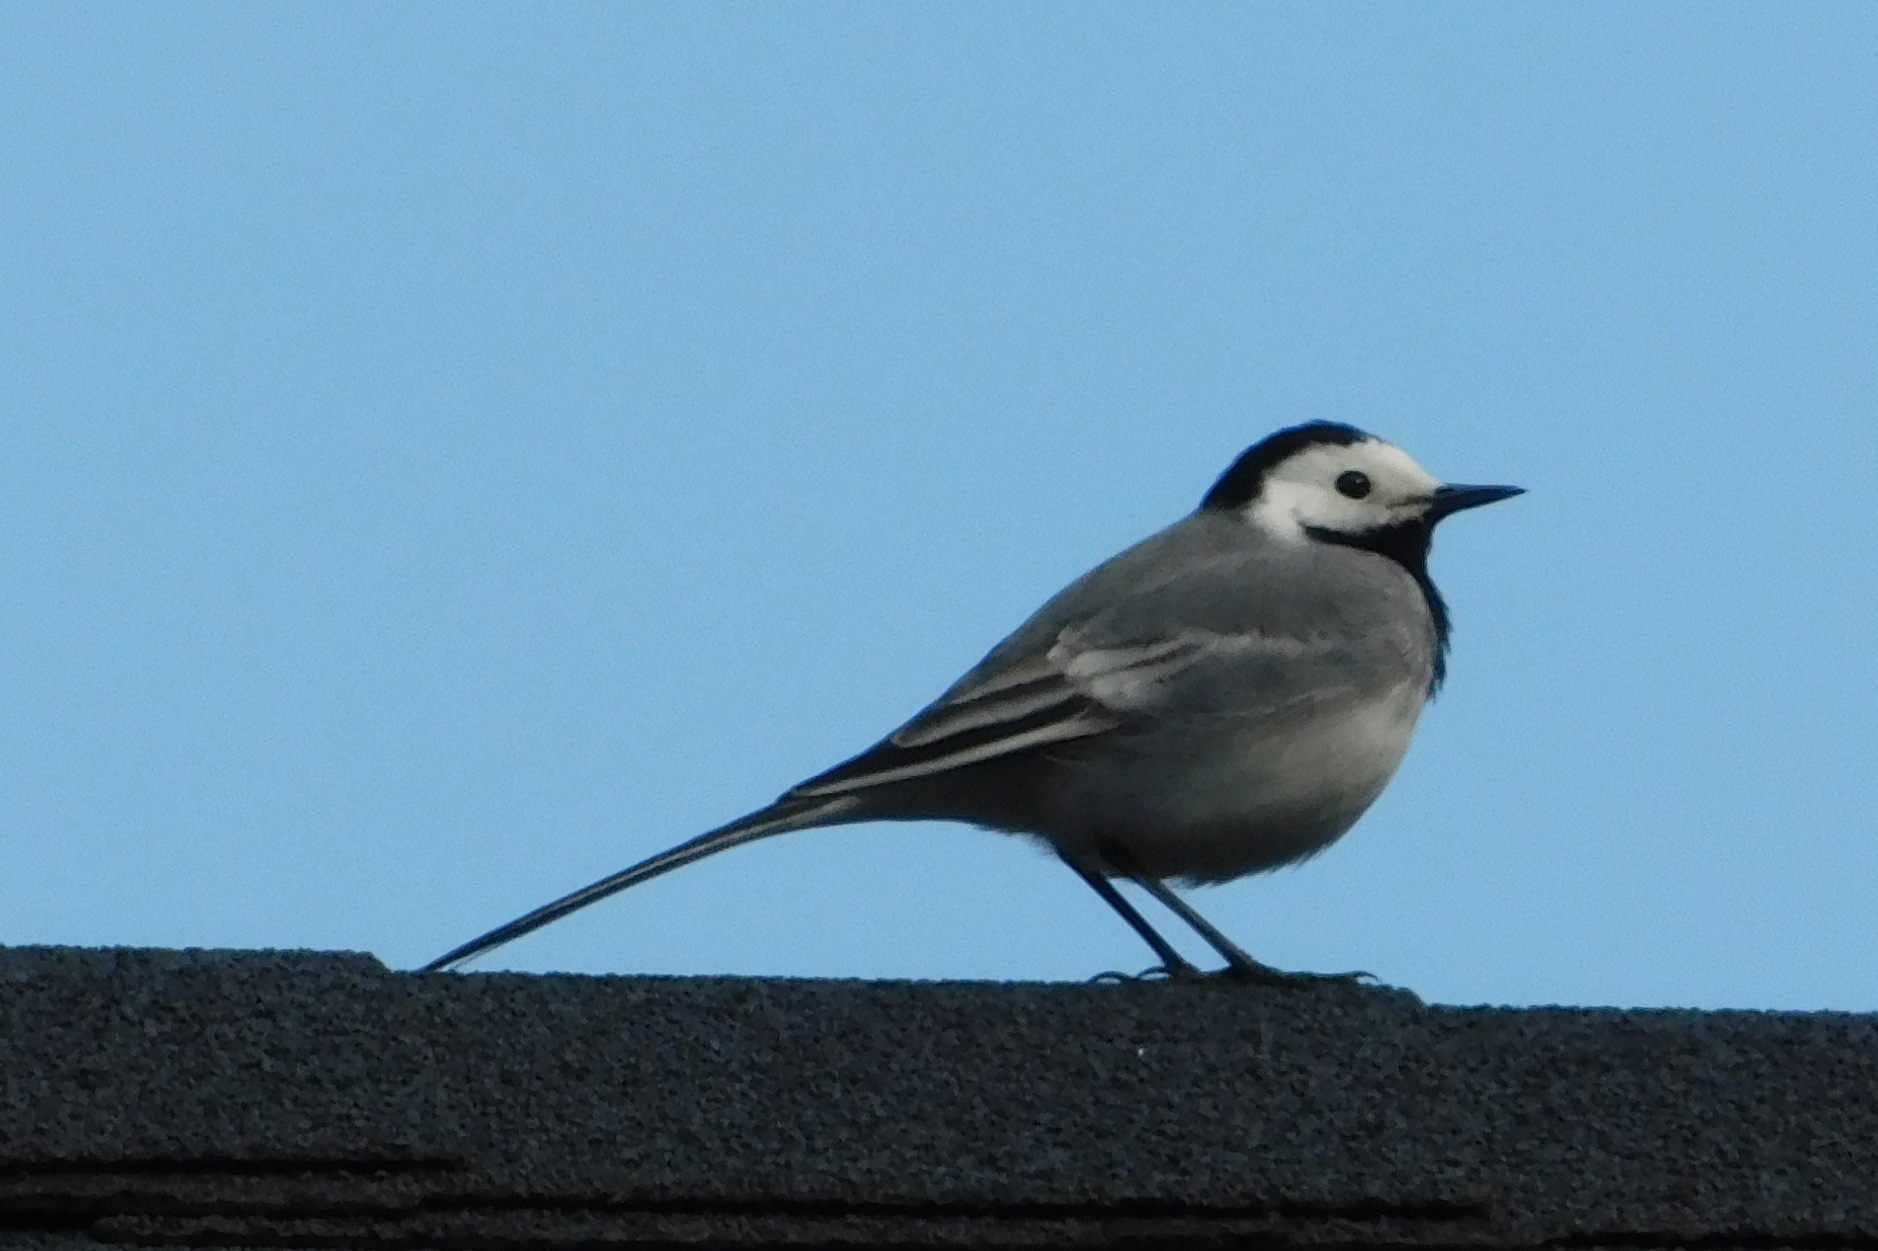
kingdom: Animalia
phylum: Chordata
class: Aves
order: Passeriformes
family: Motacillidae
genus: Motacilla
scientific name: Motacilla alba
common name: White wagtail
